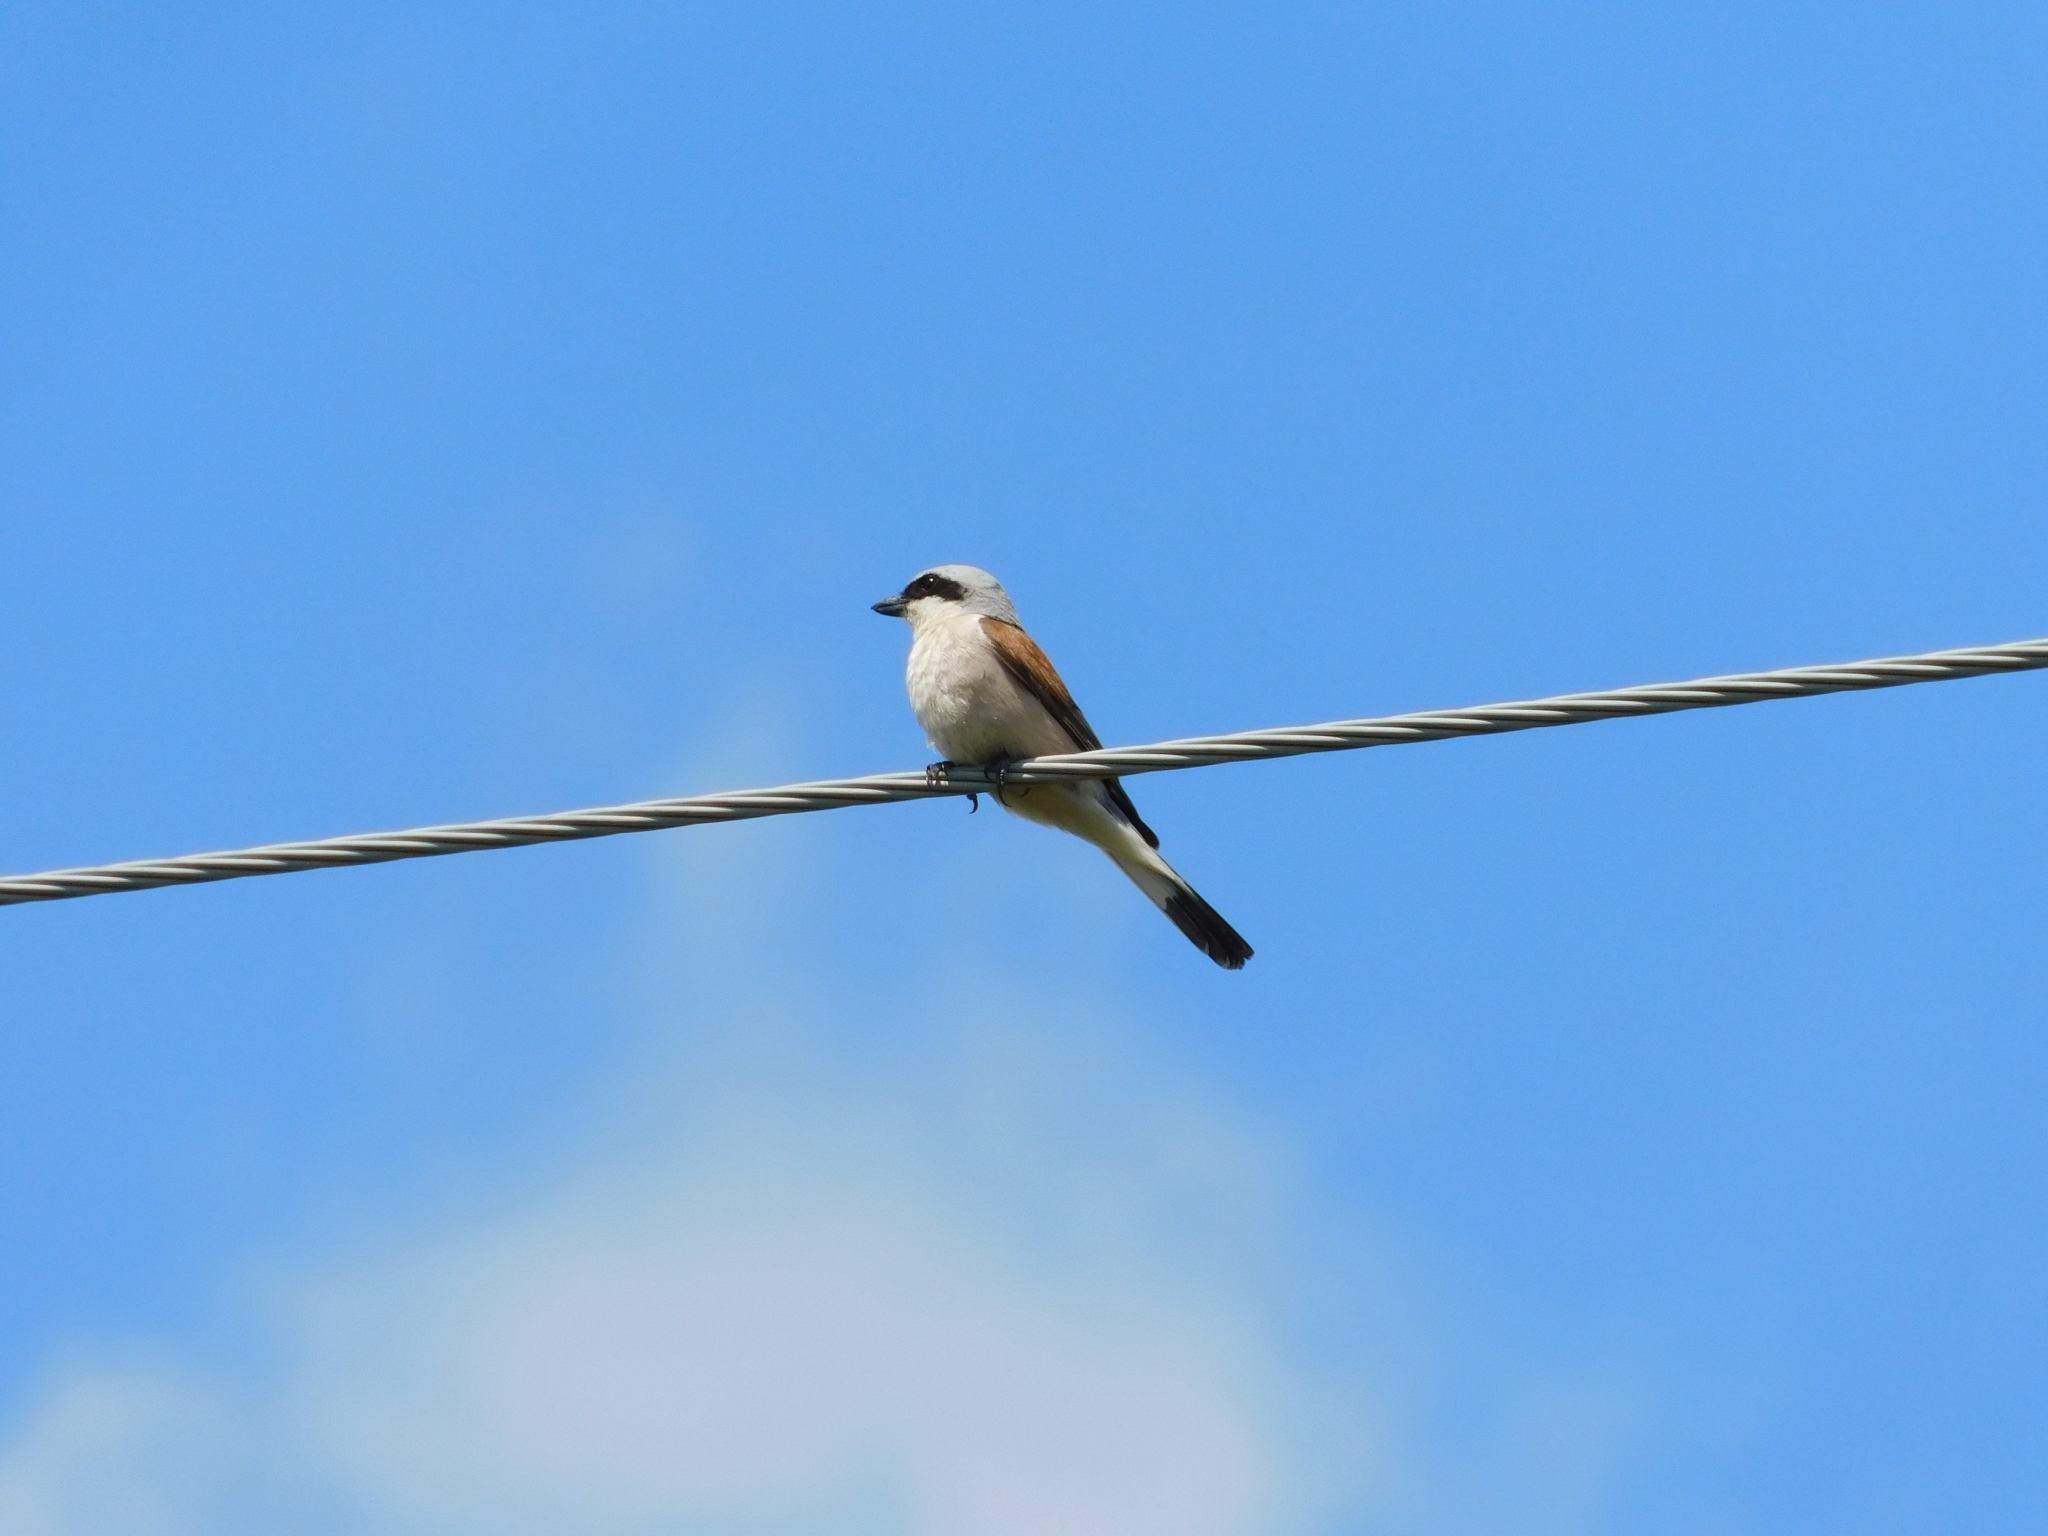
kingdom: Animalia
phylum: Chordata
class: Aves
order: Passeriformes
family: Laniidae
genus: Lanius
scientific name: Lanius collurio
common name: Red-backed shrike
